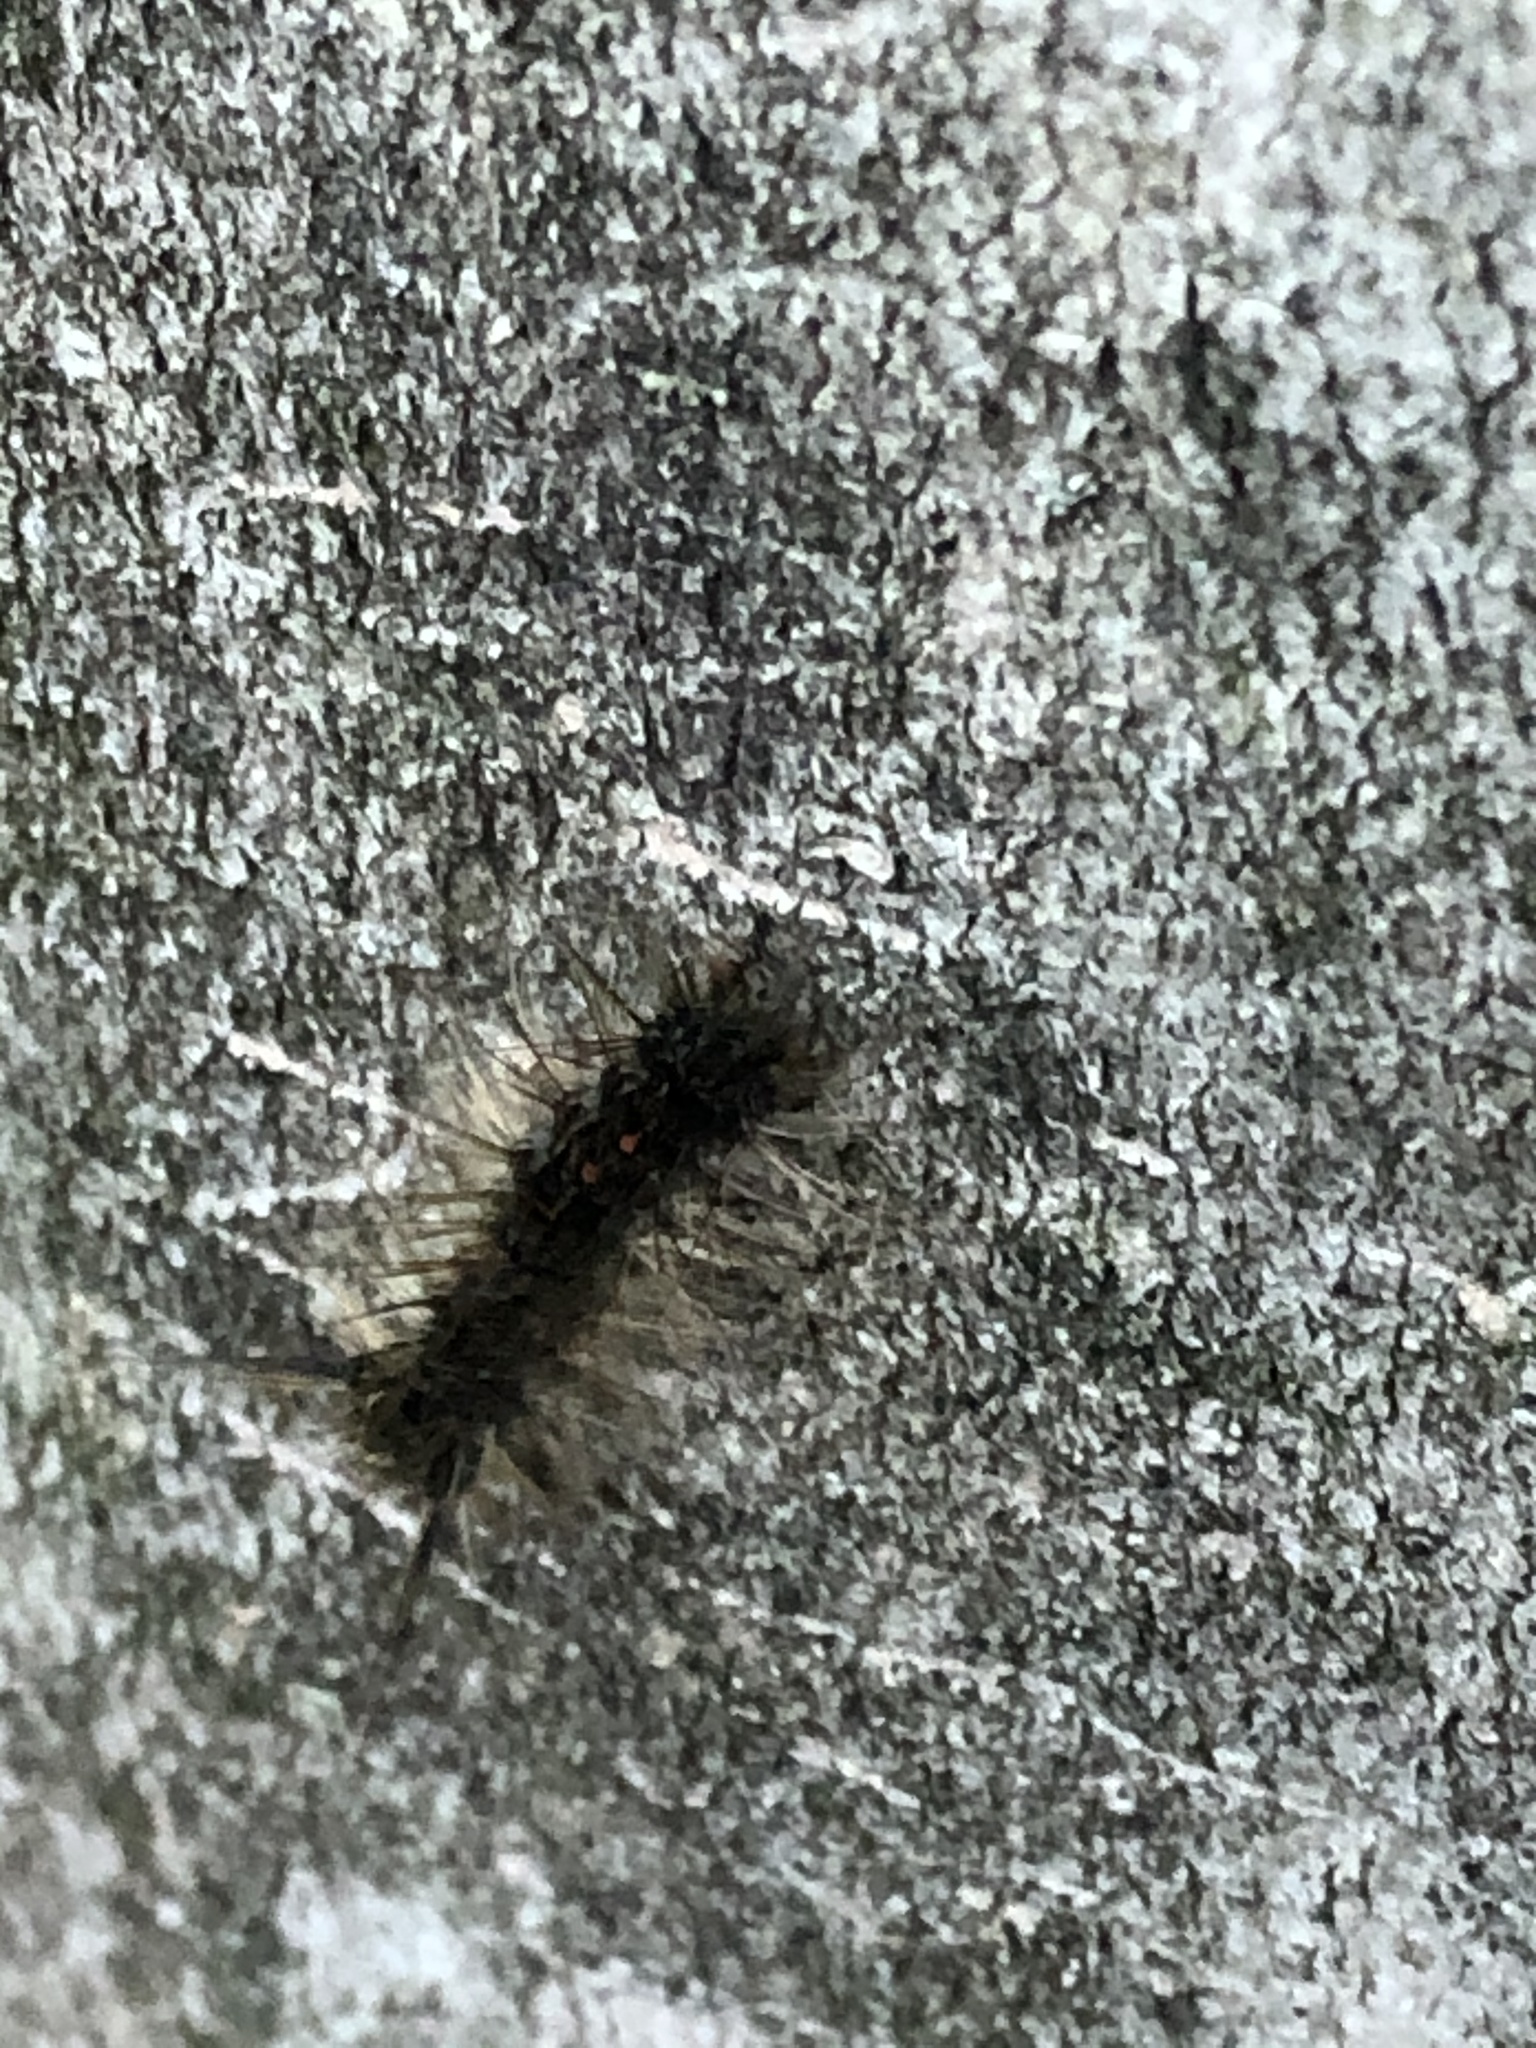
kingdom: Animalia
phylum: Arthropoda
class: Insecta
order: Lepidoptera
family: Erebidae
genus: Lymantria
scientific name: Lymantria dispar
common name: Gypsy moth
